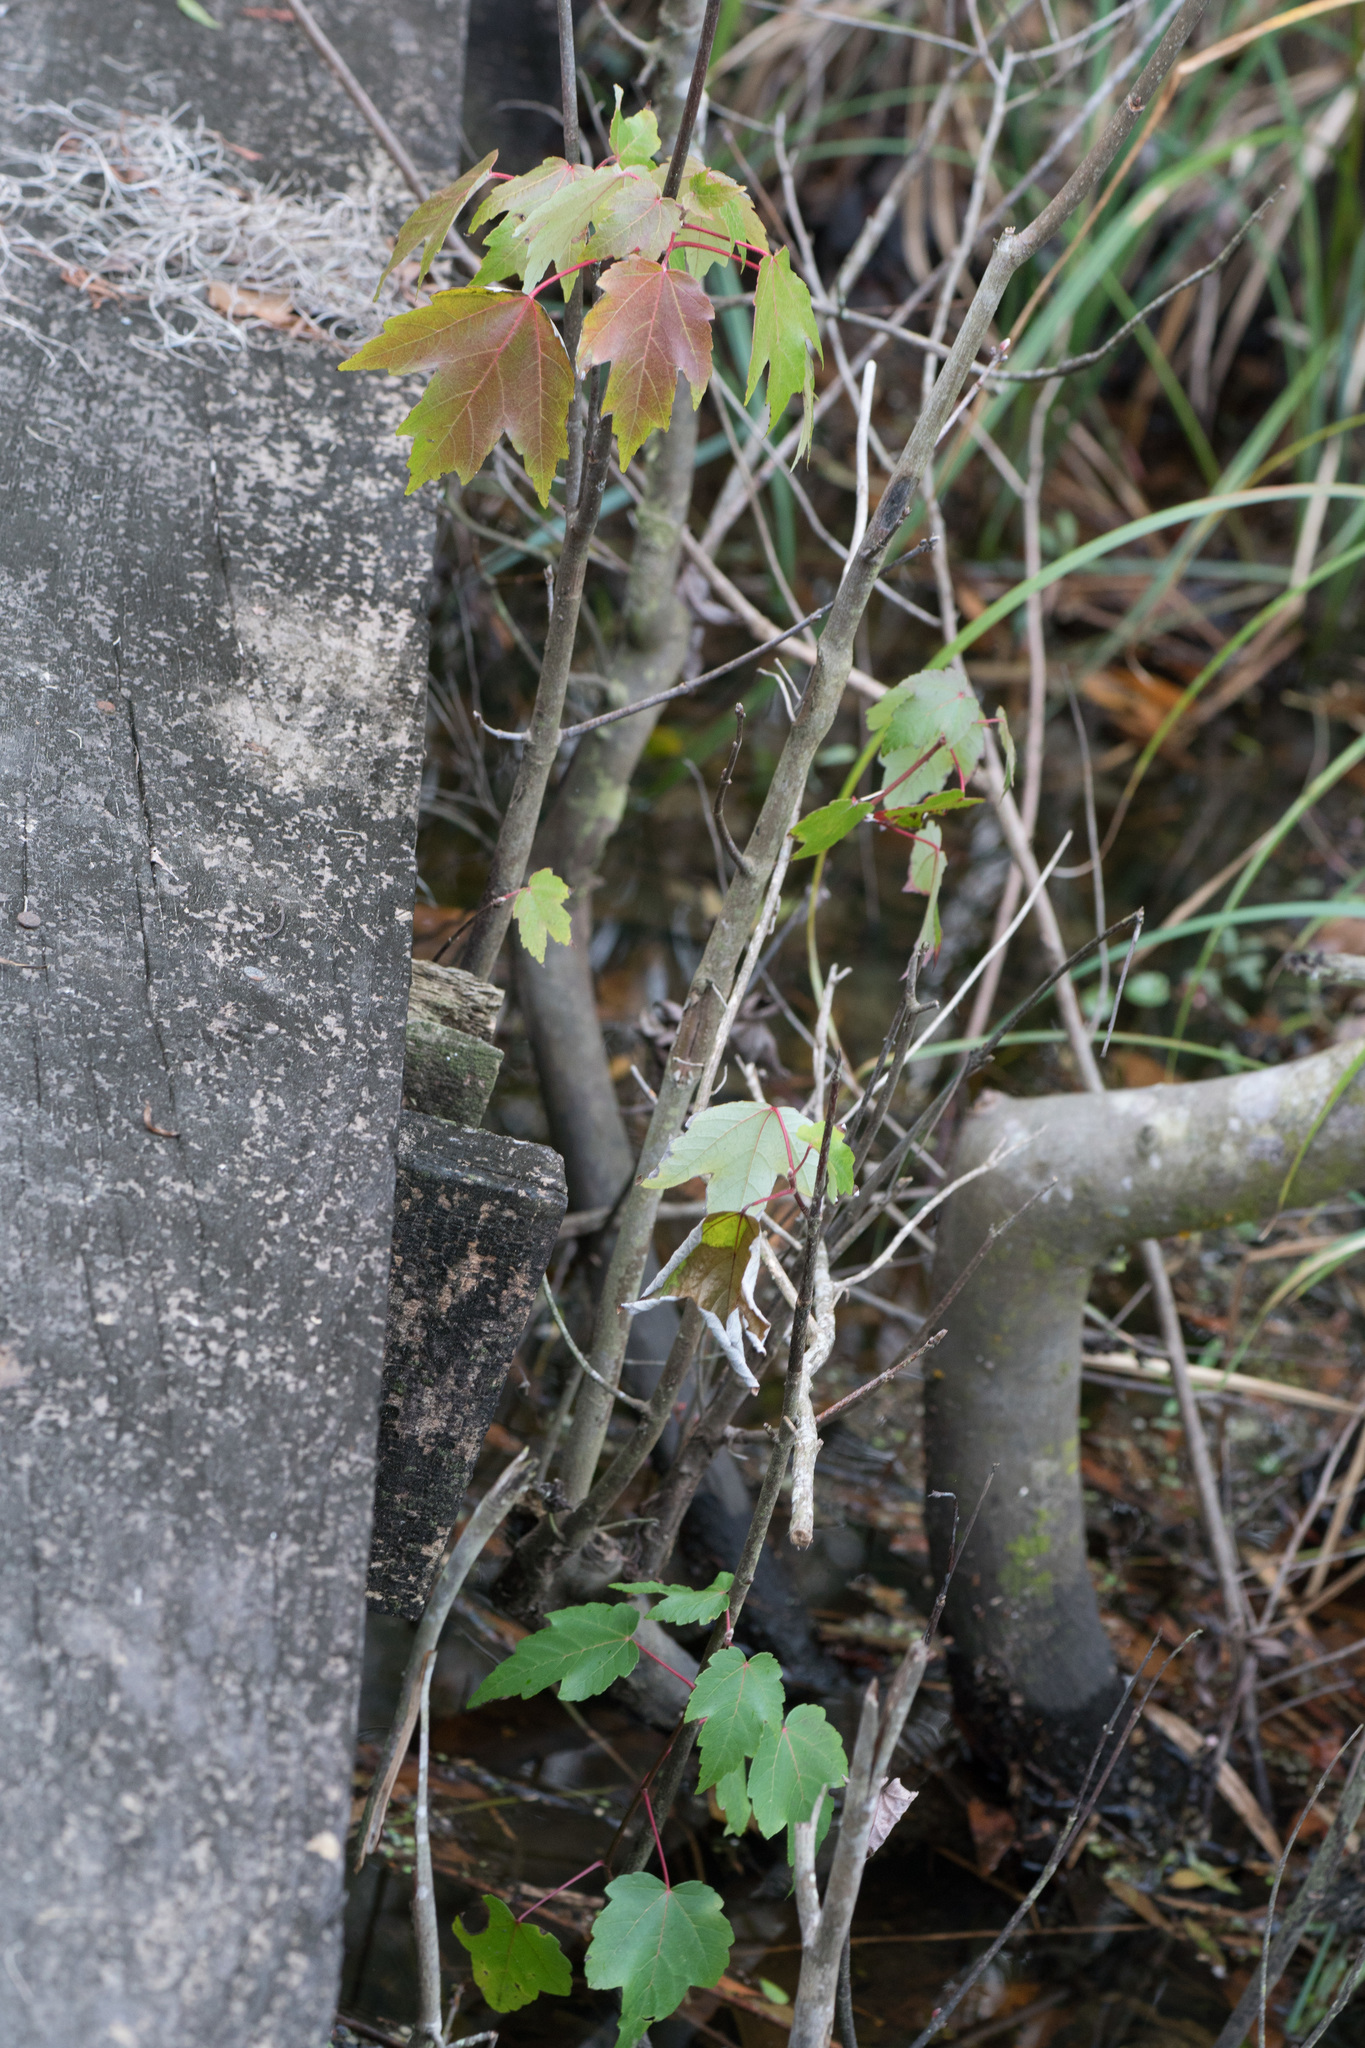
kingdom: Plantae
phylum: Tracheophyta
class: Magnoliopsida
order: Sapindales
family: Sapindaceae
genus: Acer
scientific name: Acer rubrum
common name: Red maple
